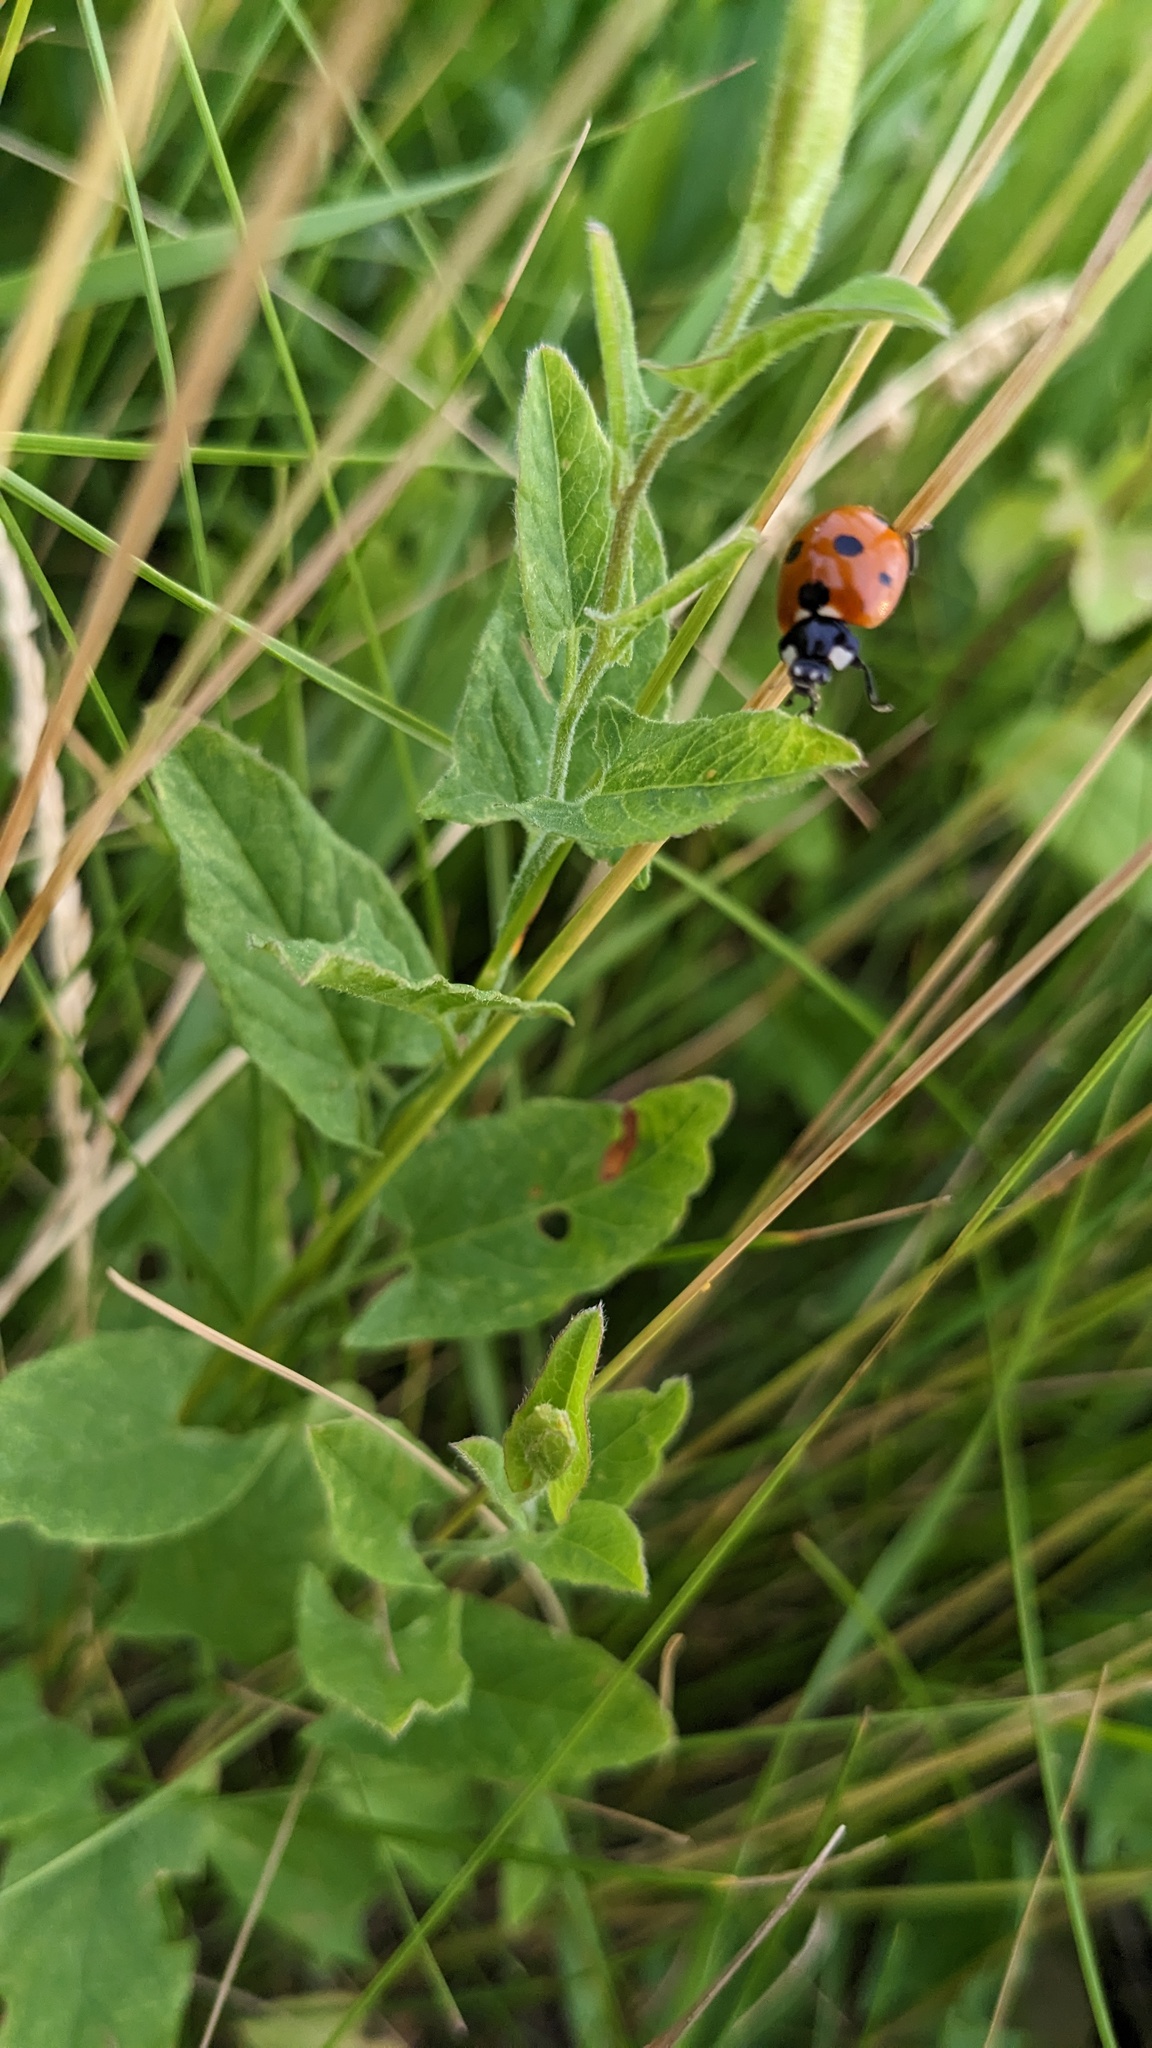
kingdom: Animalia
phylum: Arthropoda
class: Insecta
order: Coleoptera
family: Coccinellidae
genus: Coccinella
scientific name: Coccinella septempunctata
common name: Sevenspotted lady beetle
